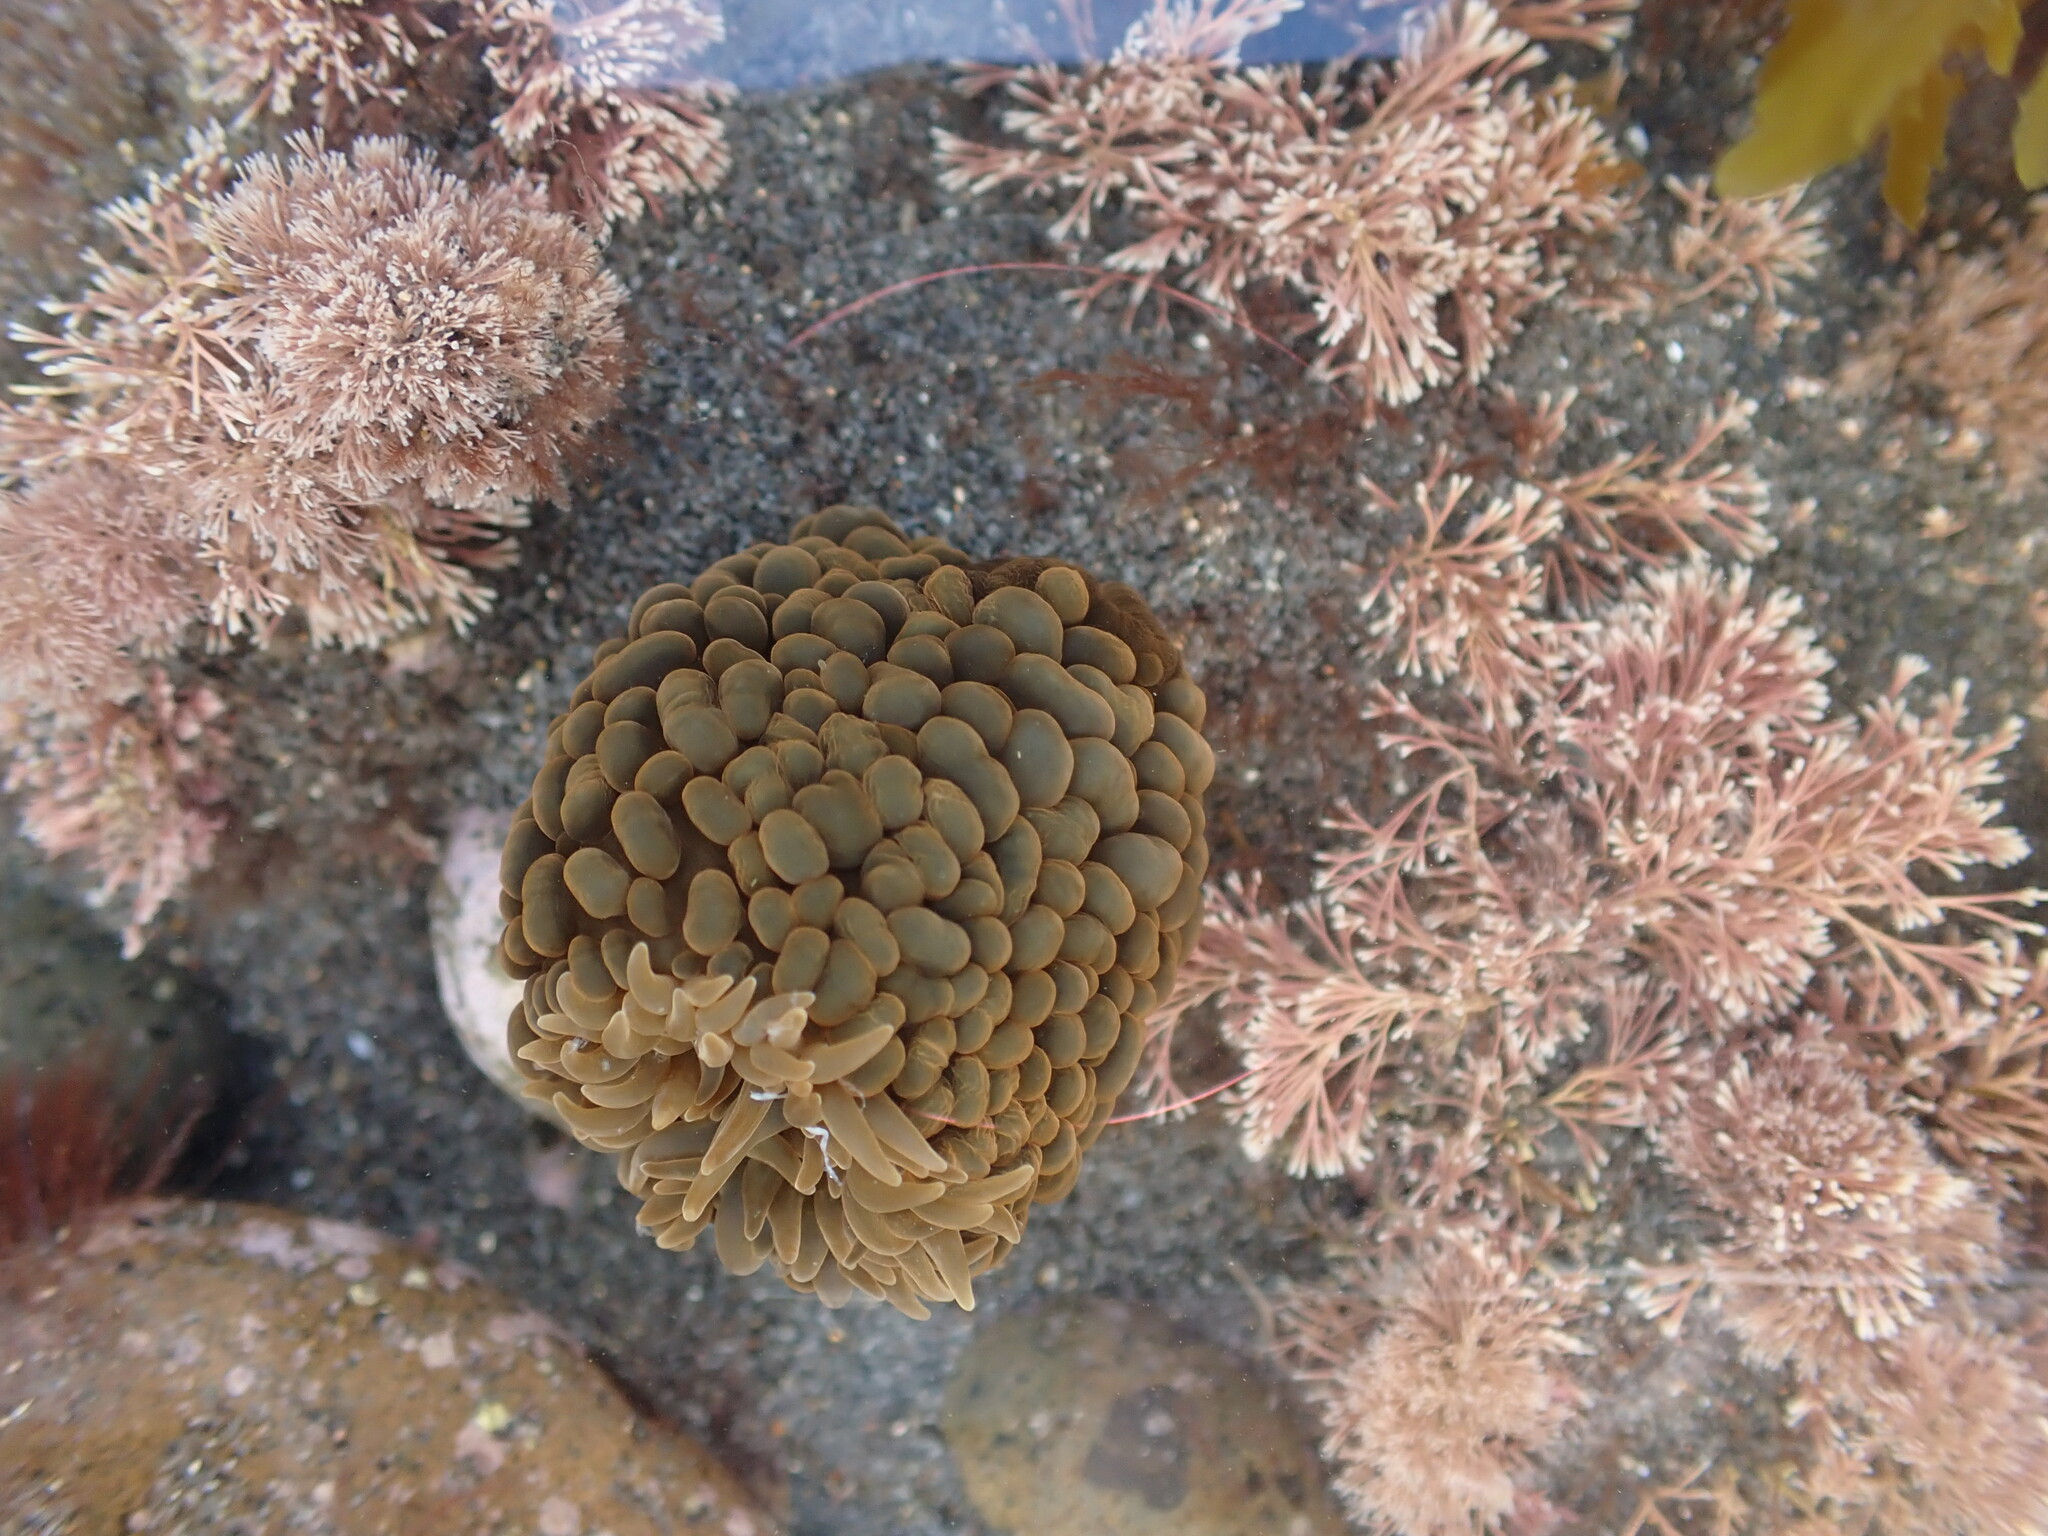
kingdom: Animalia
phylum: Cnidaria
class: Anthozoa
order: Actiniaria
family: Actiniidae
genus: Phlyctenactis
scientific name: Phlyctenactis tuberculosa
